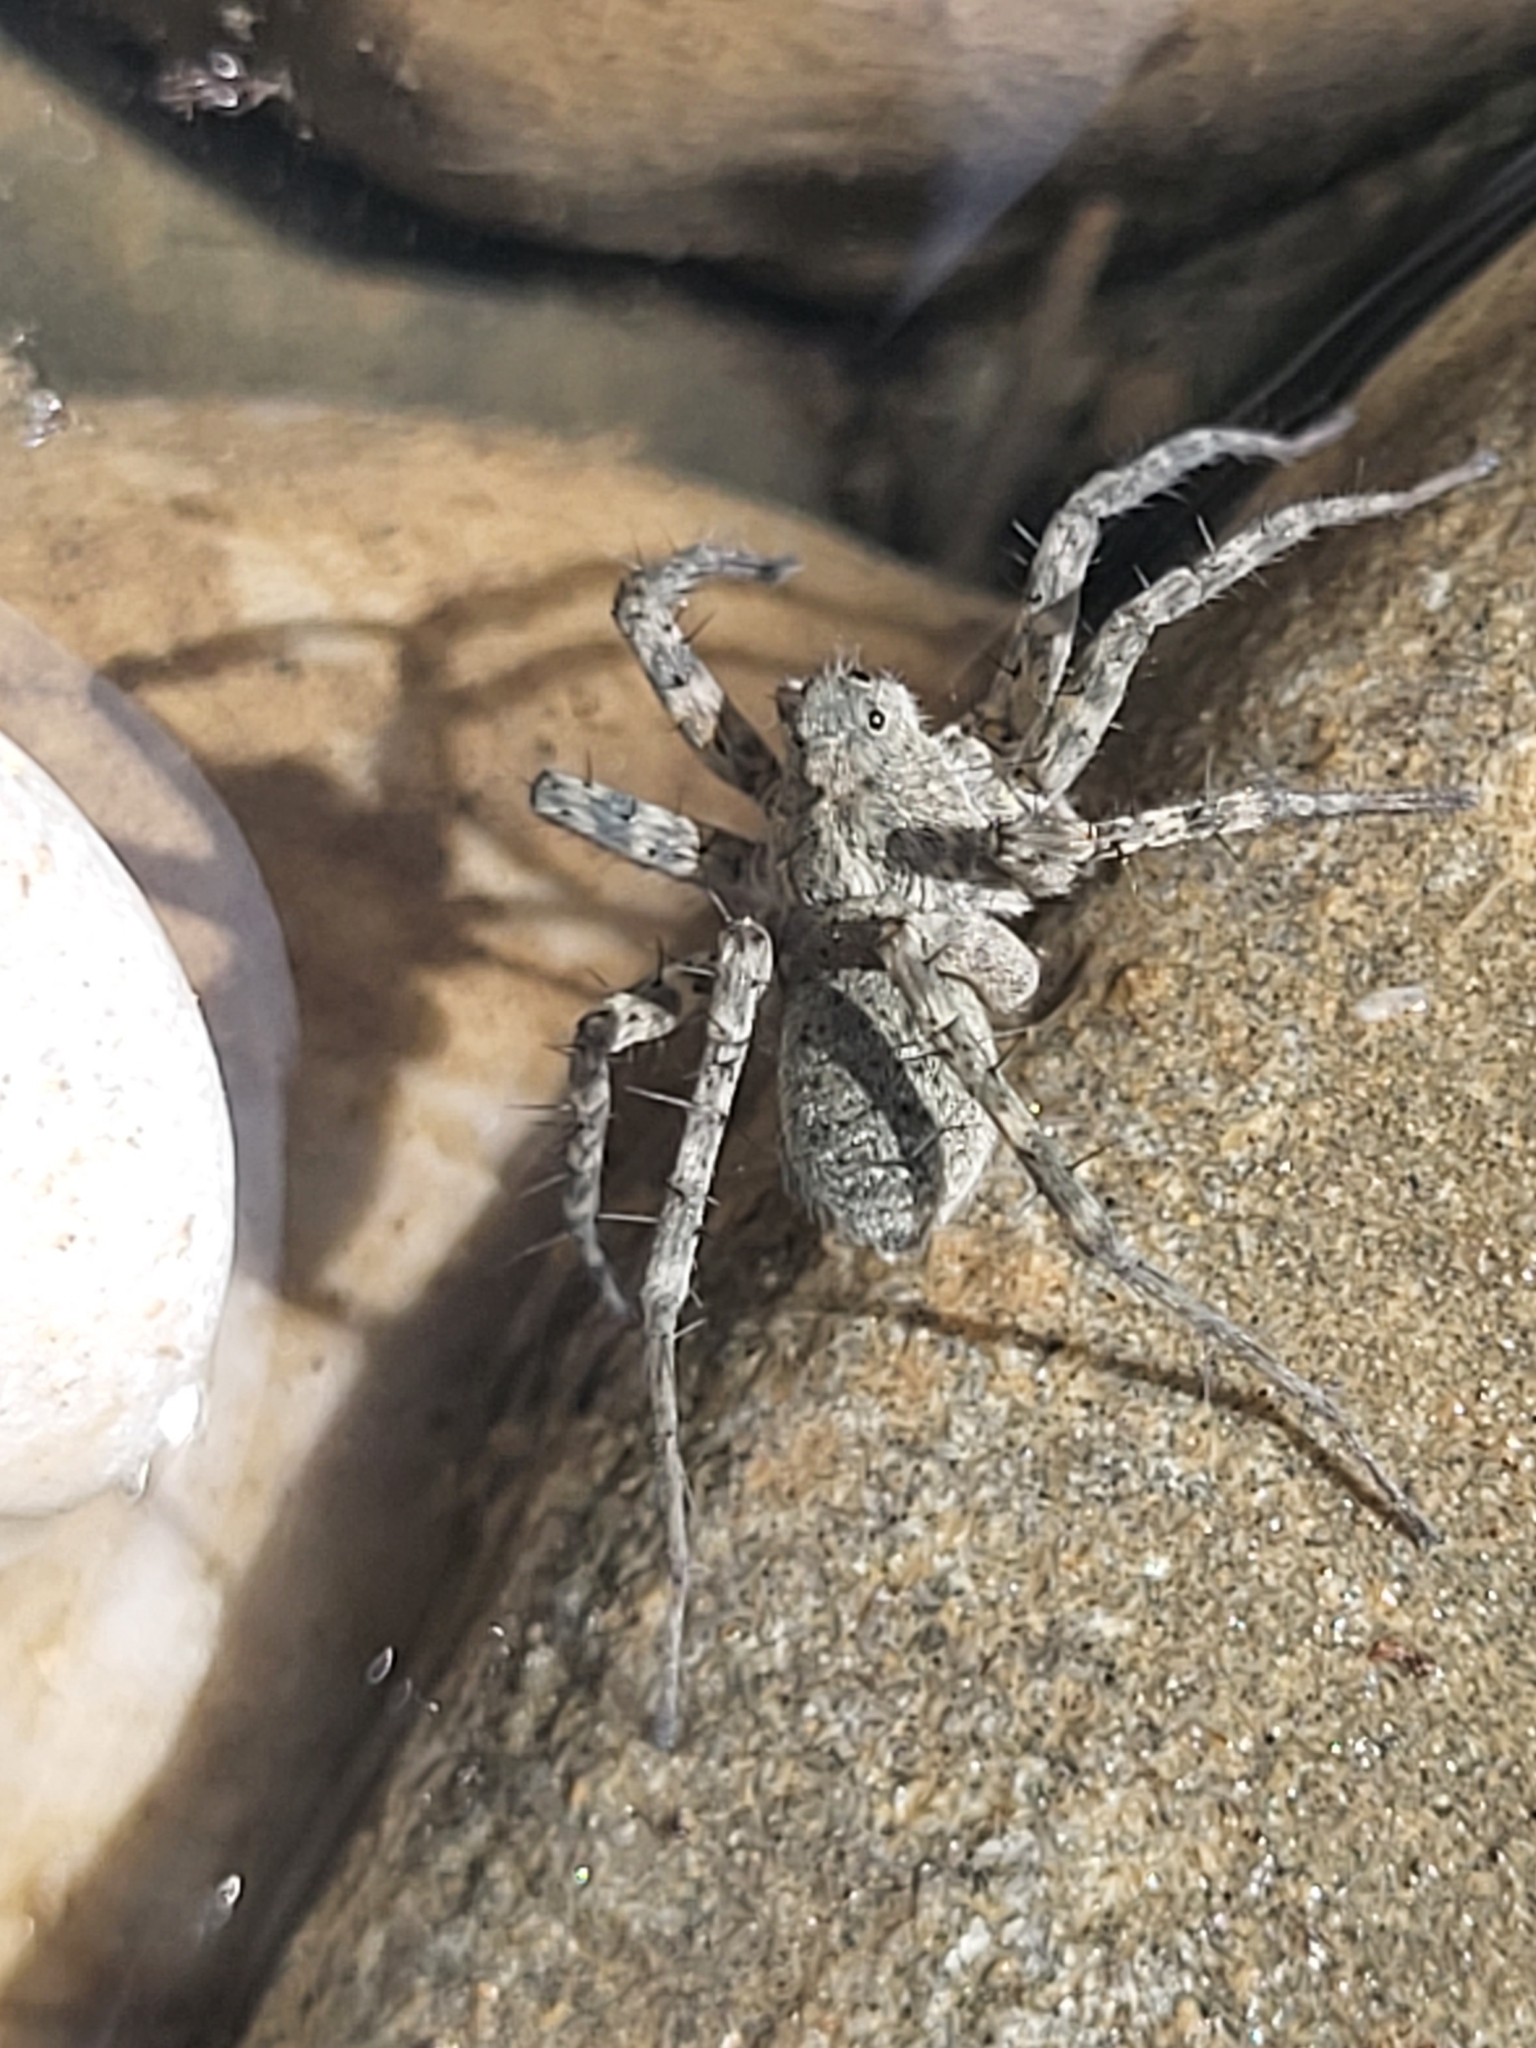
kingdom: Animalia
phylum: Arthropoda
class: Arachnida
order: Araneae
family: Lycosidae
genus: Pardosa
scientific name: Pardosa
